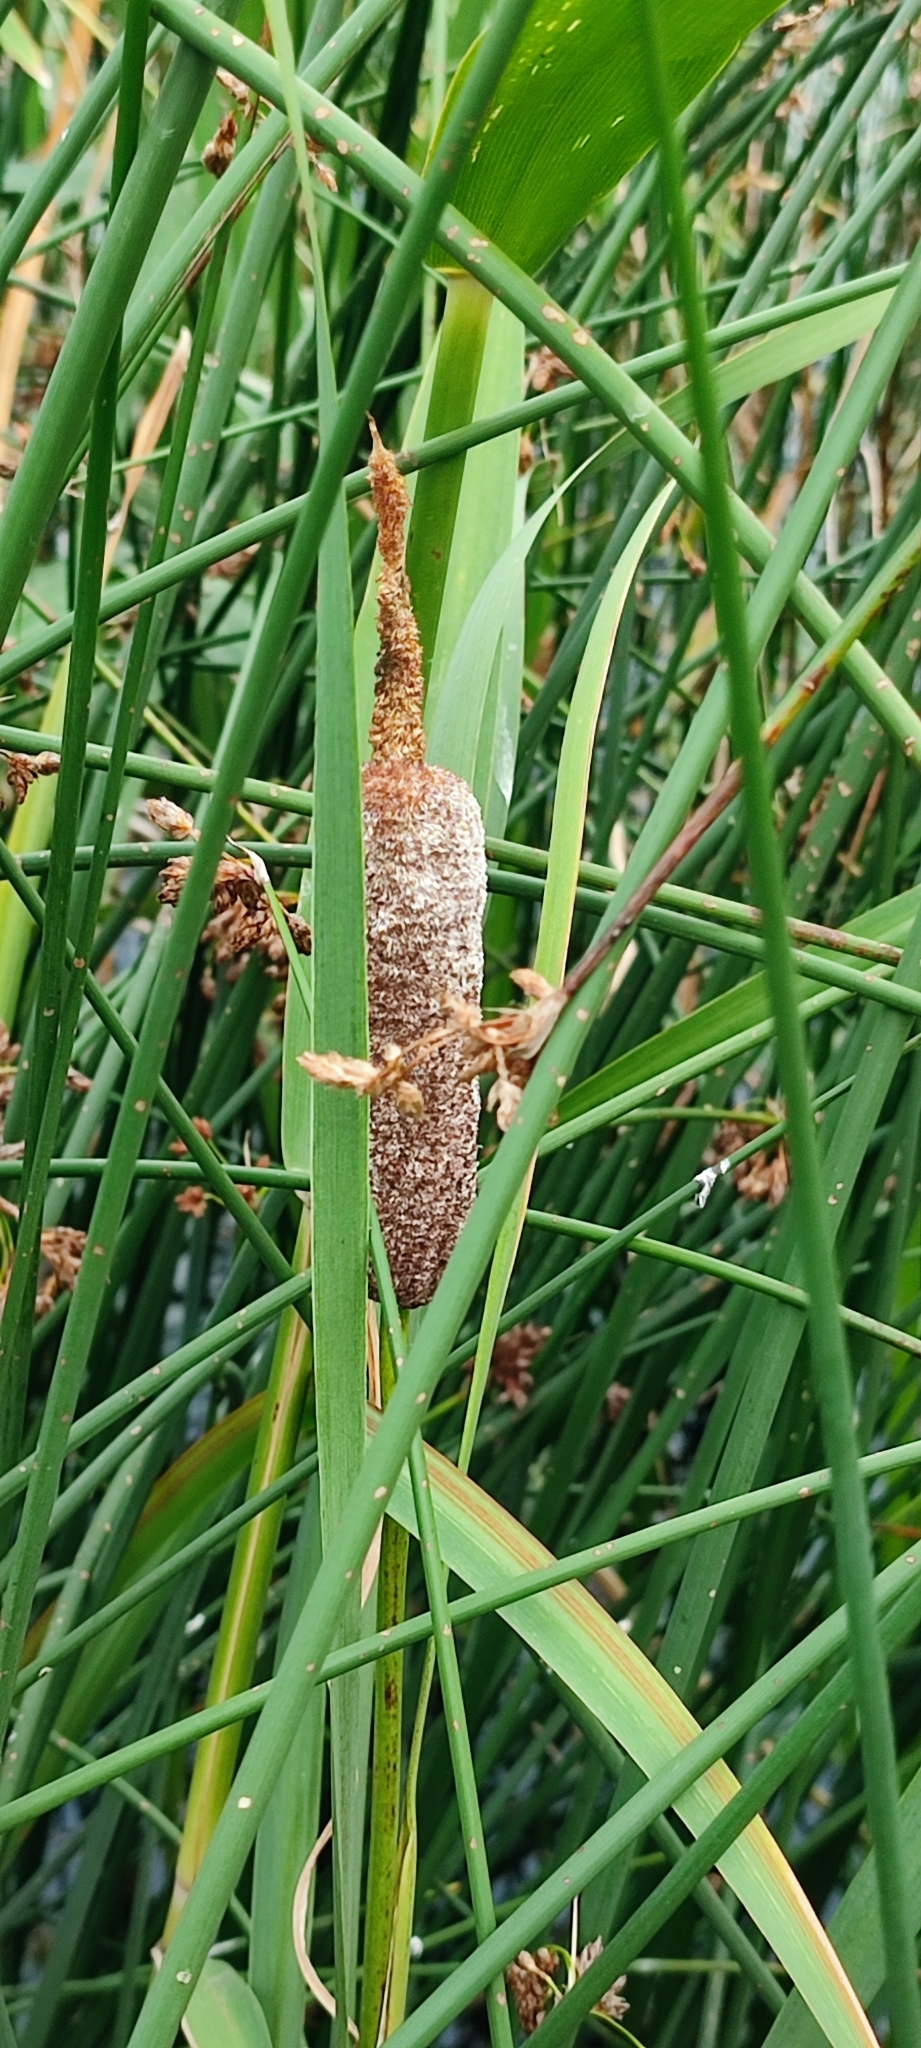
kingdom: Plantae
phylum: Tracheophyta
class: Liliopsida
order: Poales
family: Typhaceae
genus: Typha
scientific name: Typha incana
